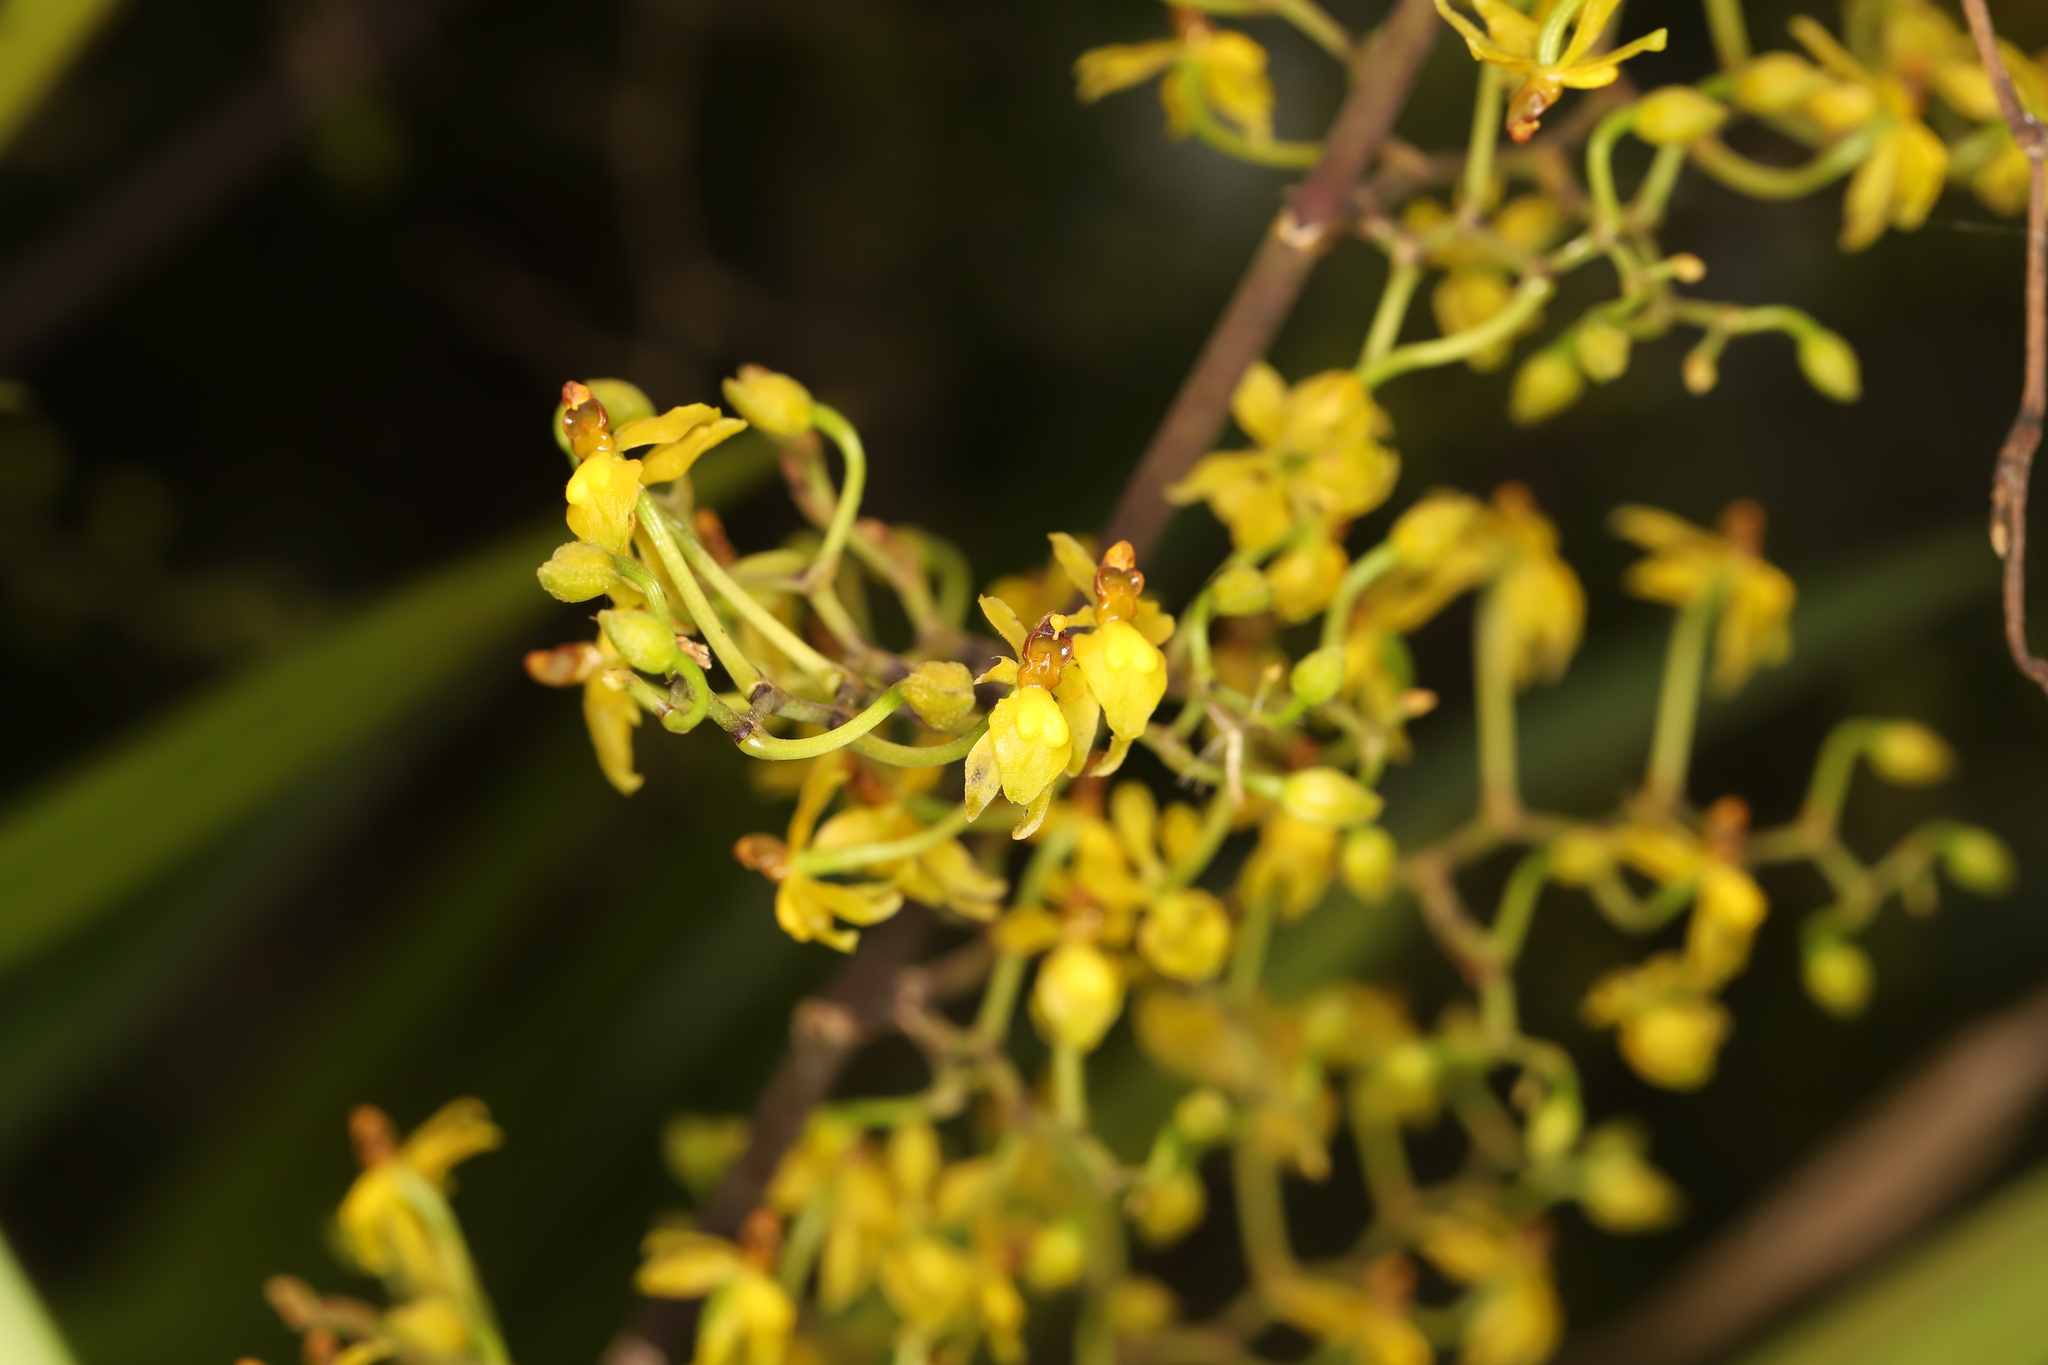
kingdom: Plantae
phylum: Tracheophyta
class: Liliopsida
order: Asparagales
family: Orchidaceae
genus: Cyrtochilum
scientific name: Cyrtochilum murinum
